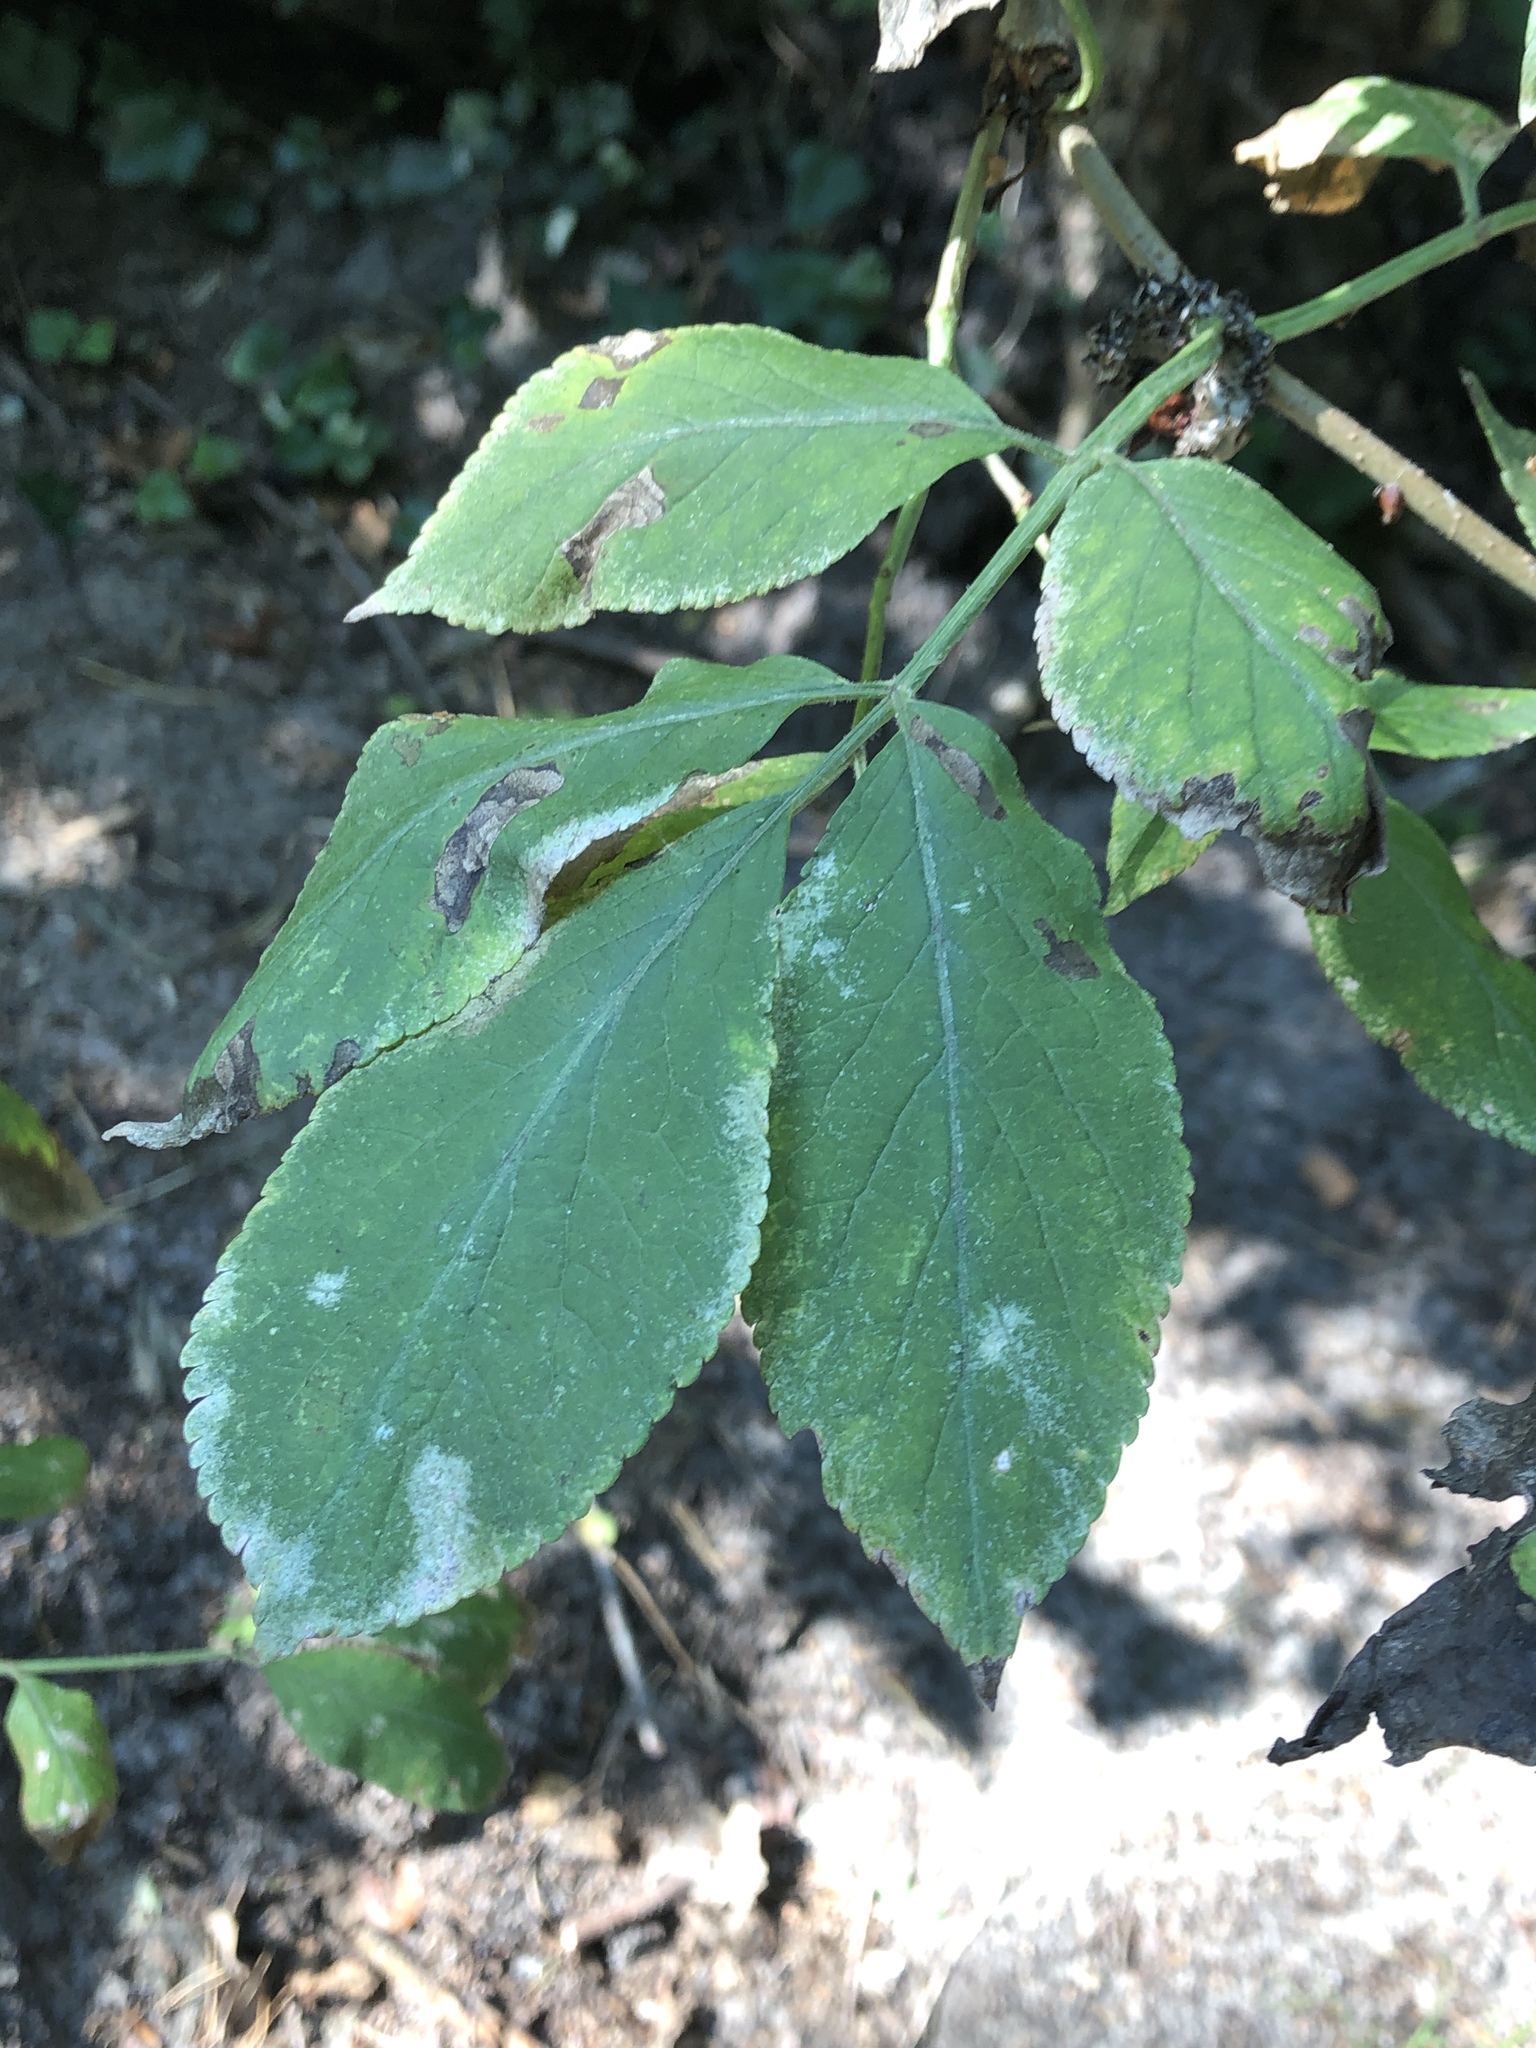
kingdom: Plantae
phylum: Tracheophyta
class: Magnoliopsida
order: Dipsacales
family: Viburnaceae
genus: Sambucus
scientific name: Sambucus nigra
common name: Elder
